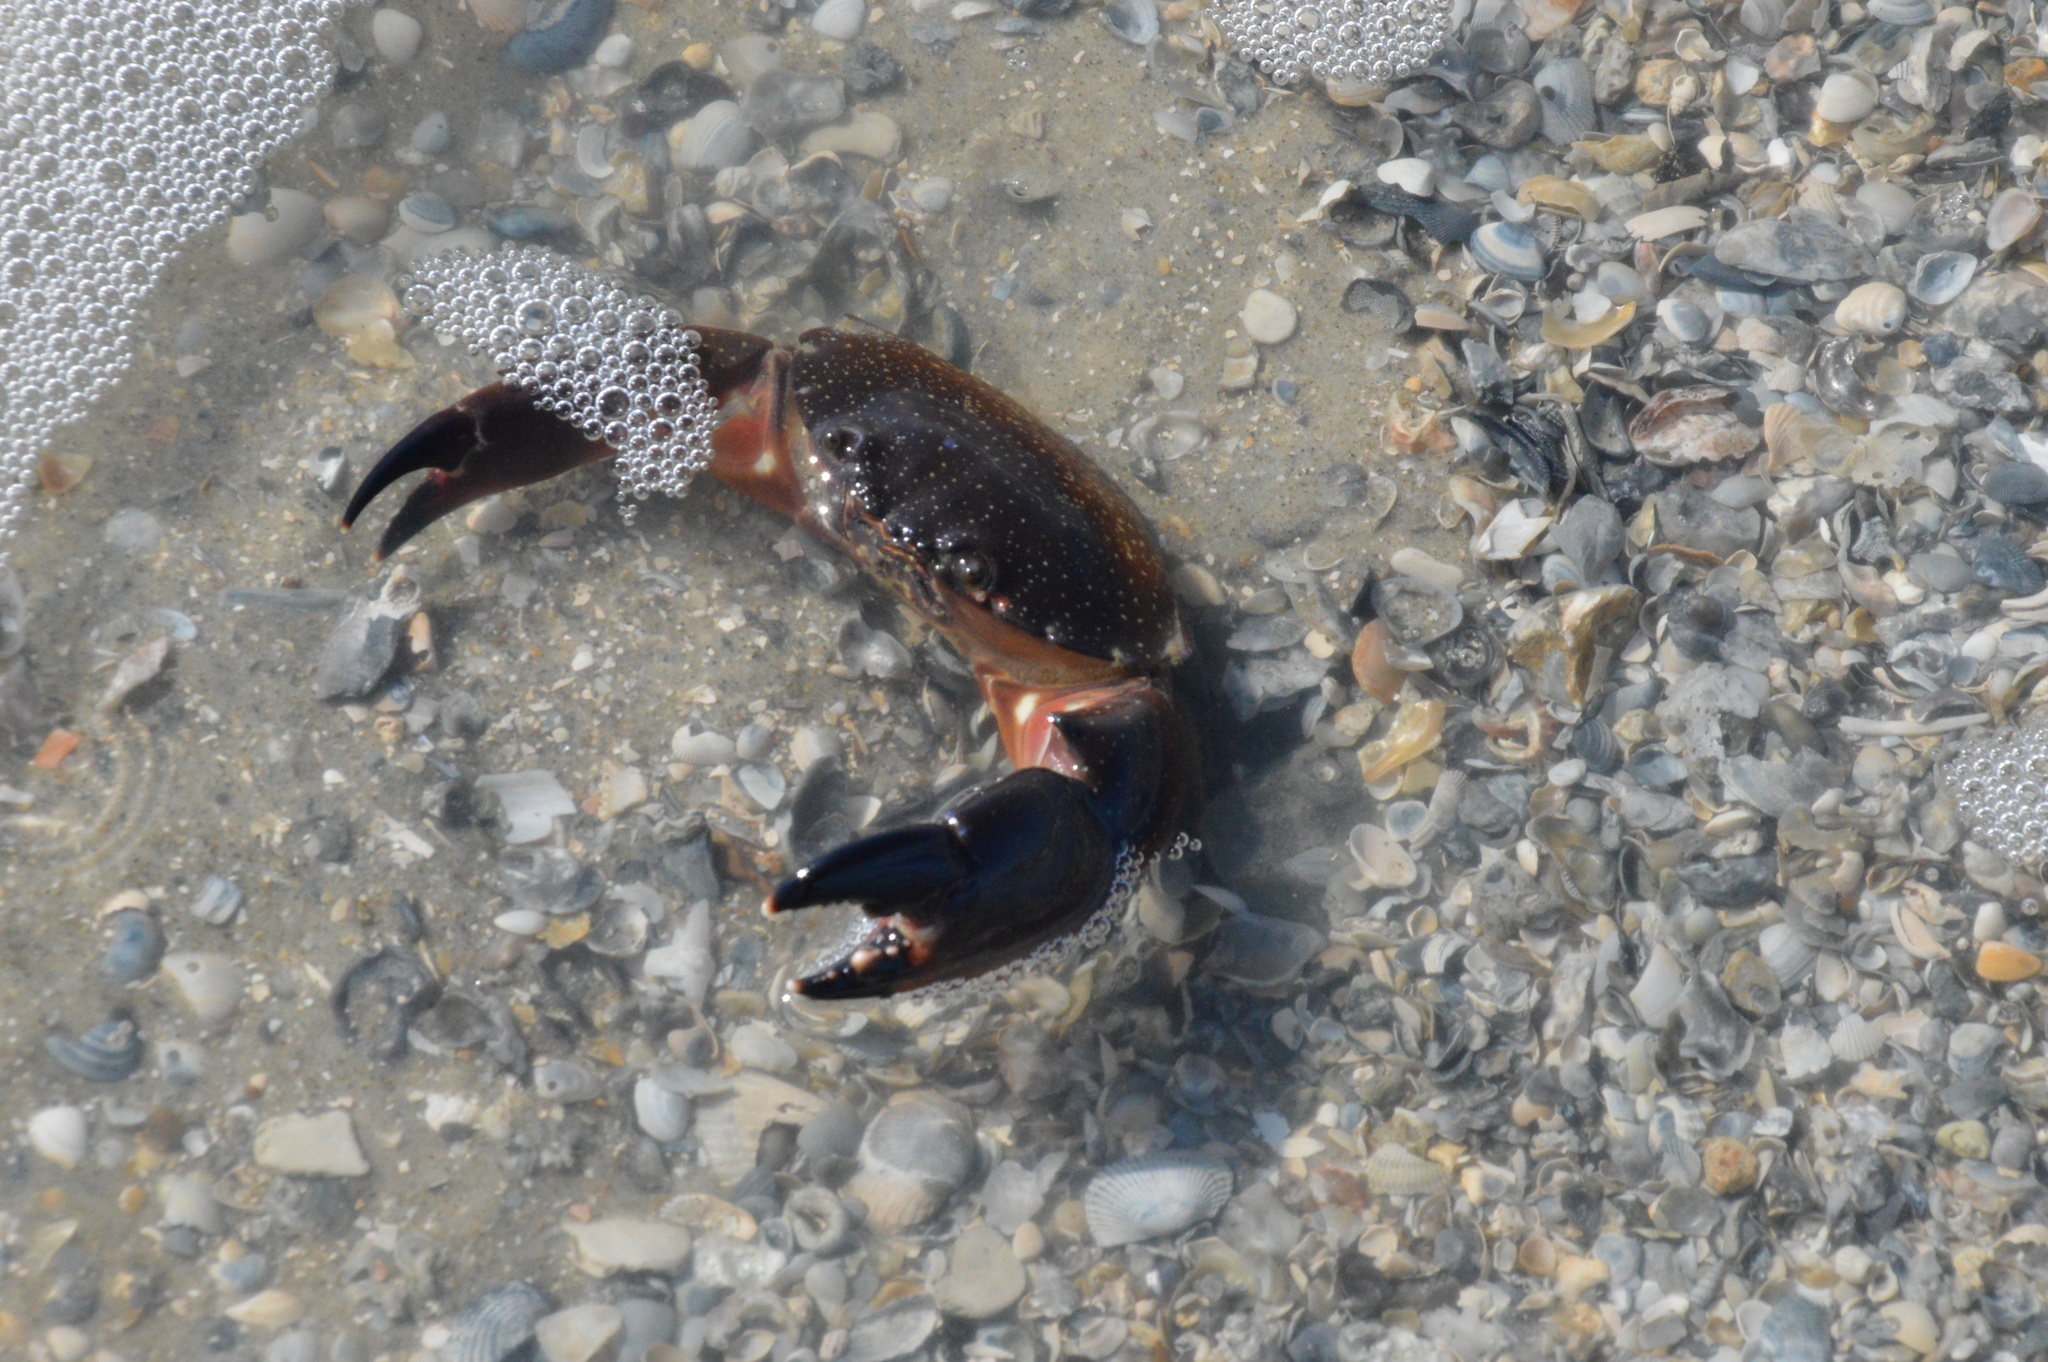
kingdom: Animalia
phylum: Arthropoda
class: Malacostraca
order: Decapoda
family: Menippidae
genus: Menippe
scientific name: Menippe adina
